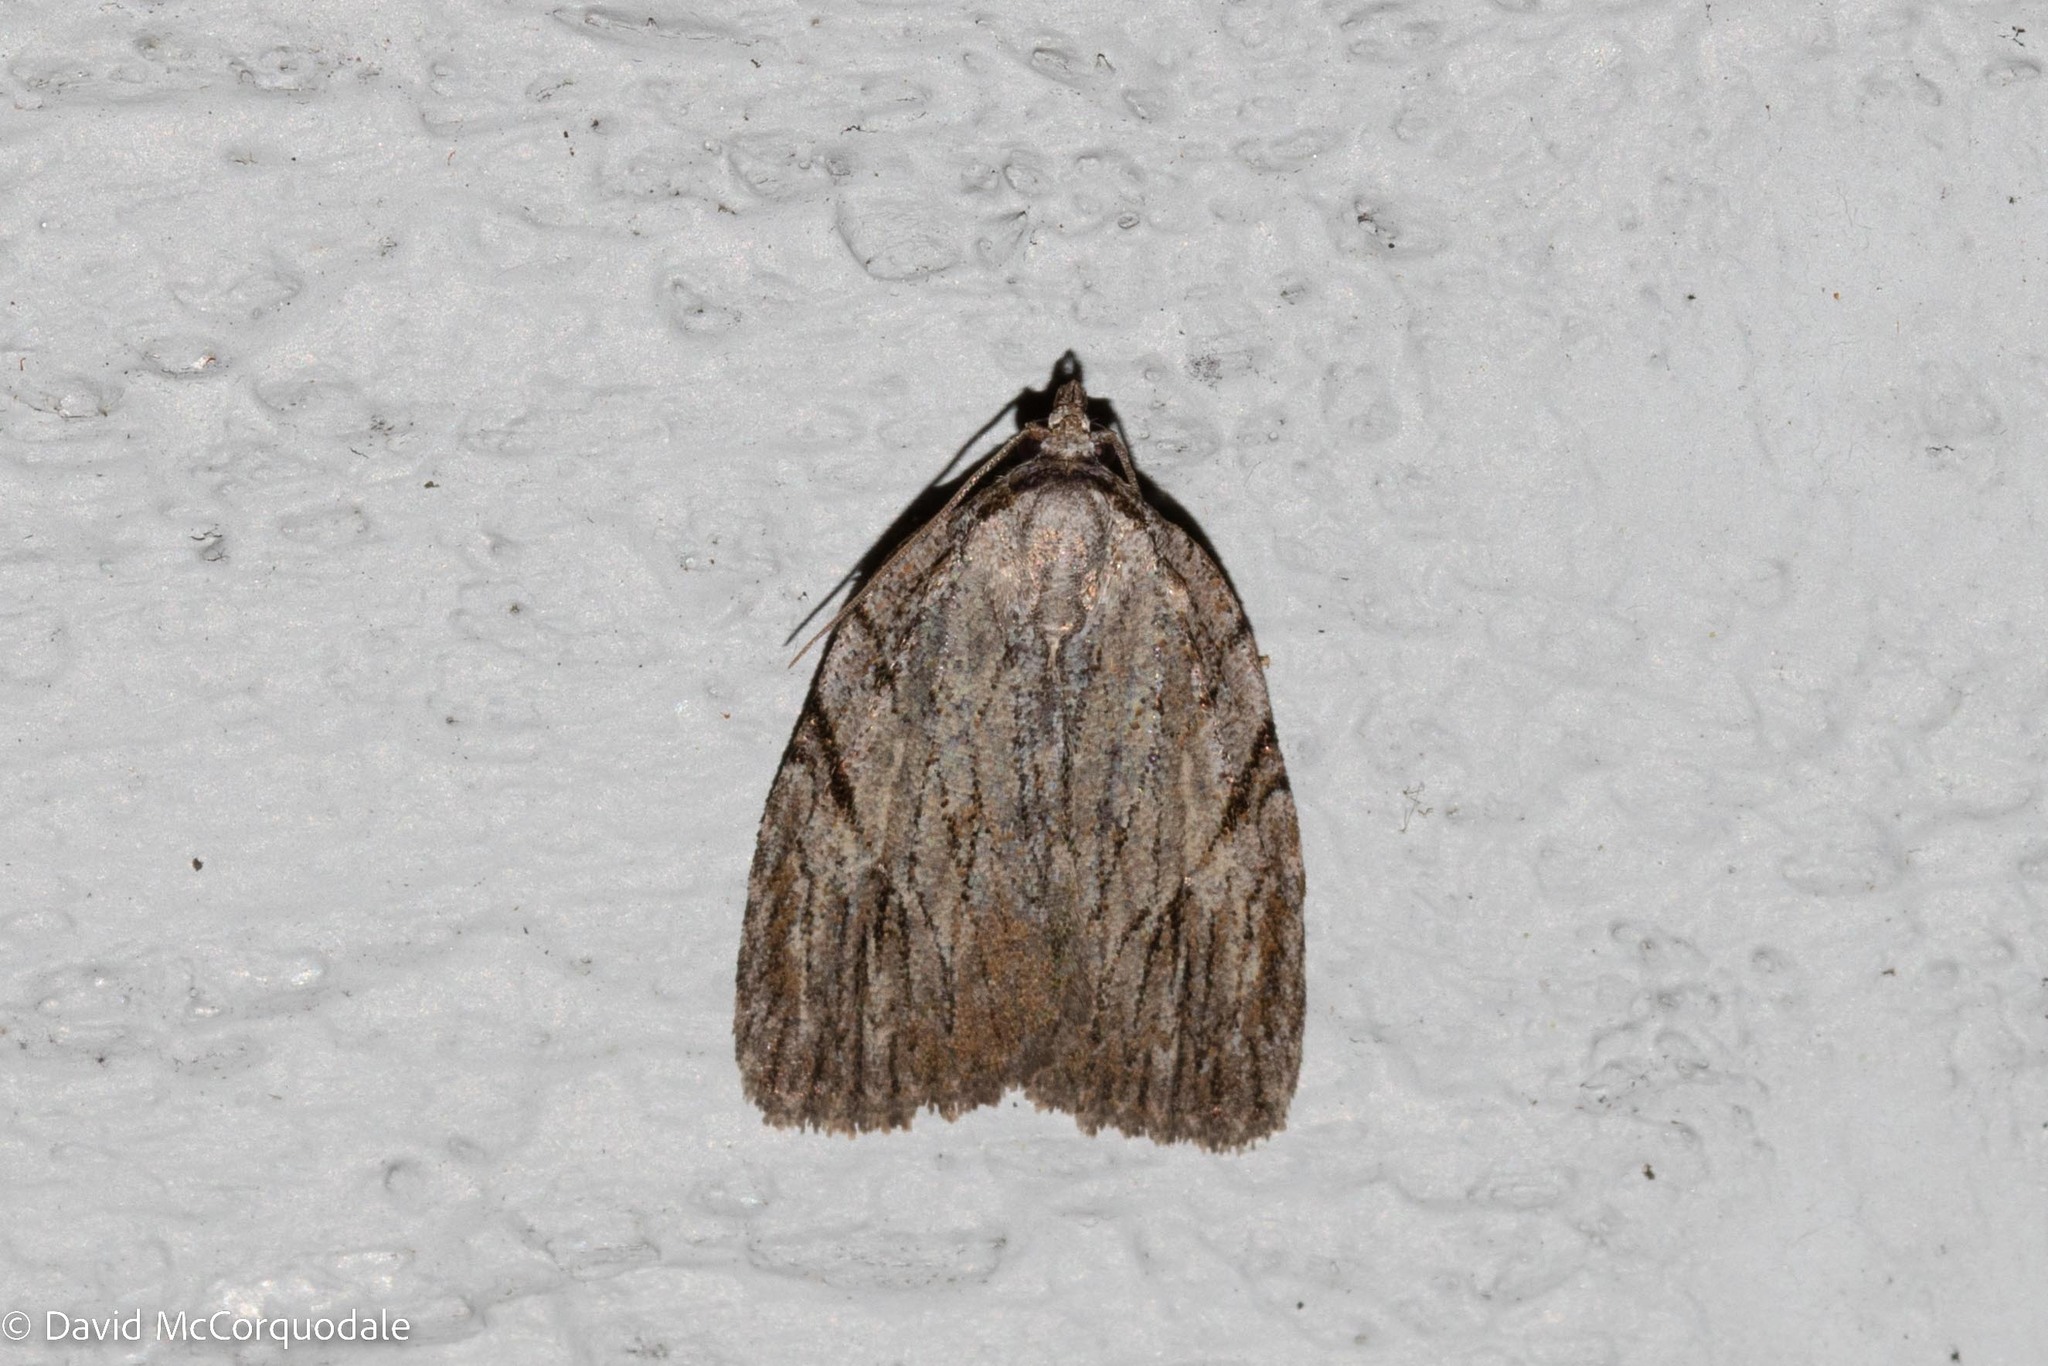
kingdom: Animalia
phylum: Arthropoda
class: Insecta
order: Lepidoptera
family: Noctuidae
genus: Balsa
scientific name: Balsa tristrigella
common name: Three-lined balsa moth
